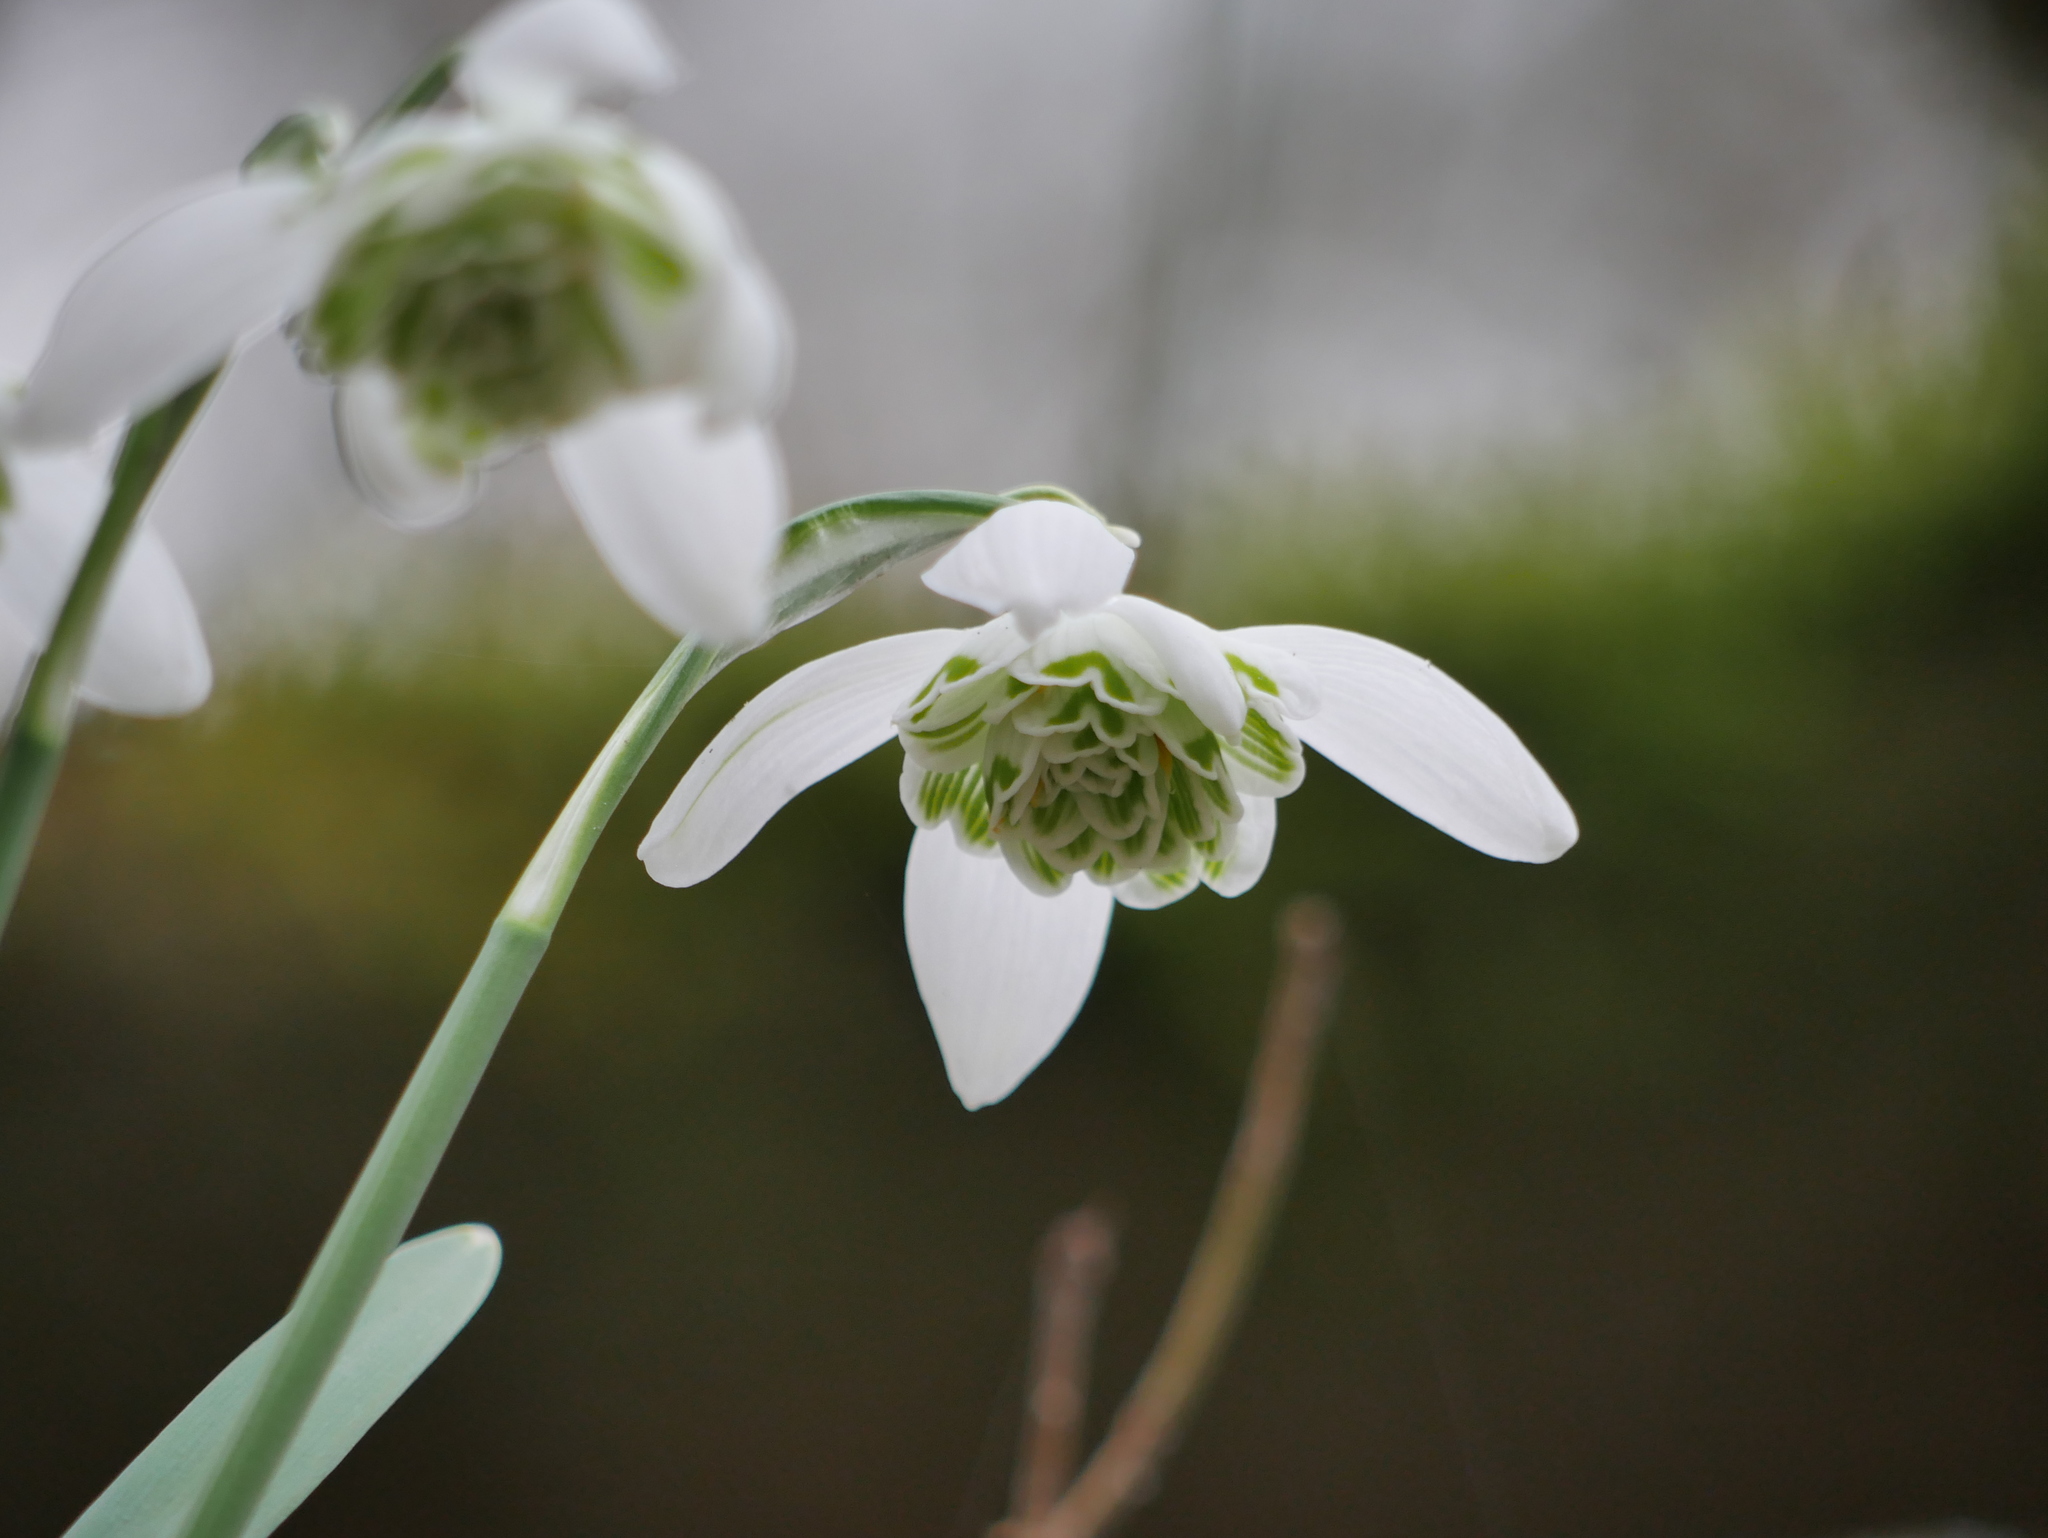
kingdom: Plantae
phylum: Tracheophyta
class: Liliopsida
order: Asparagales
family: Amaryllidaceae
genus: Galanthus
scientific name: Galanthus nivalis
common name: Snowdrop
